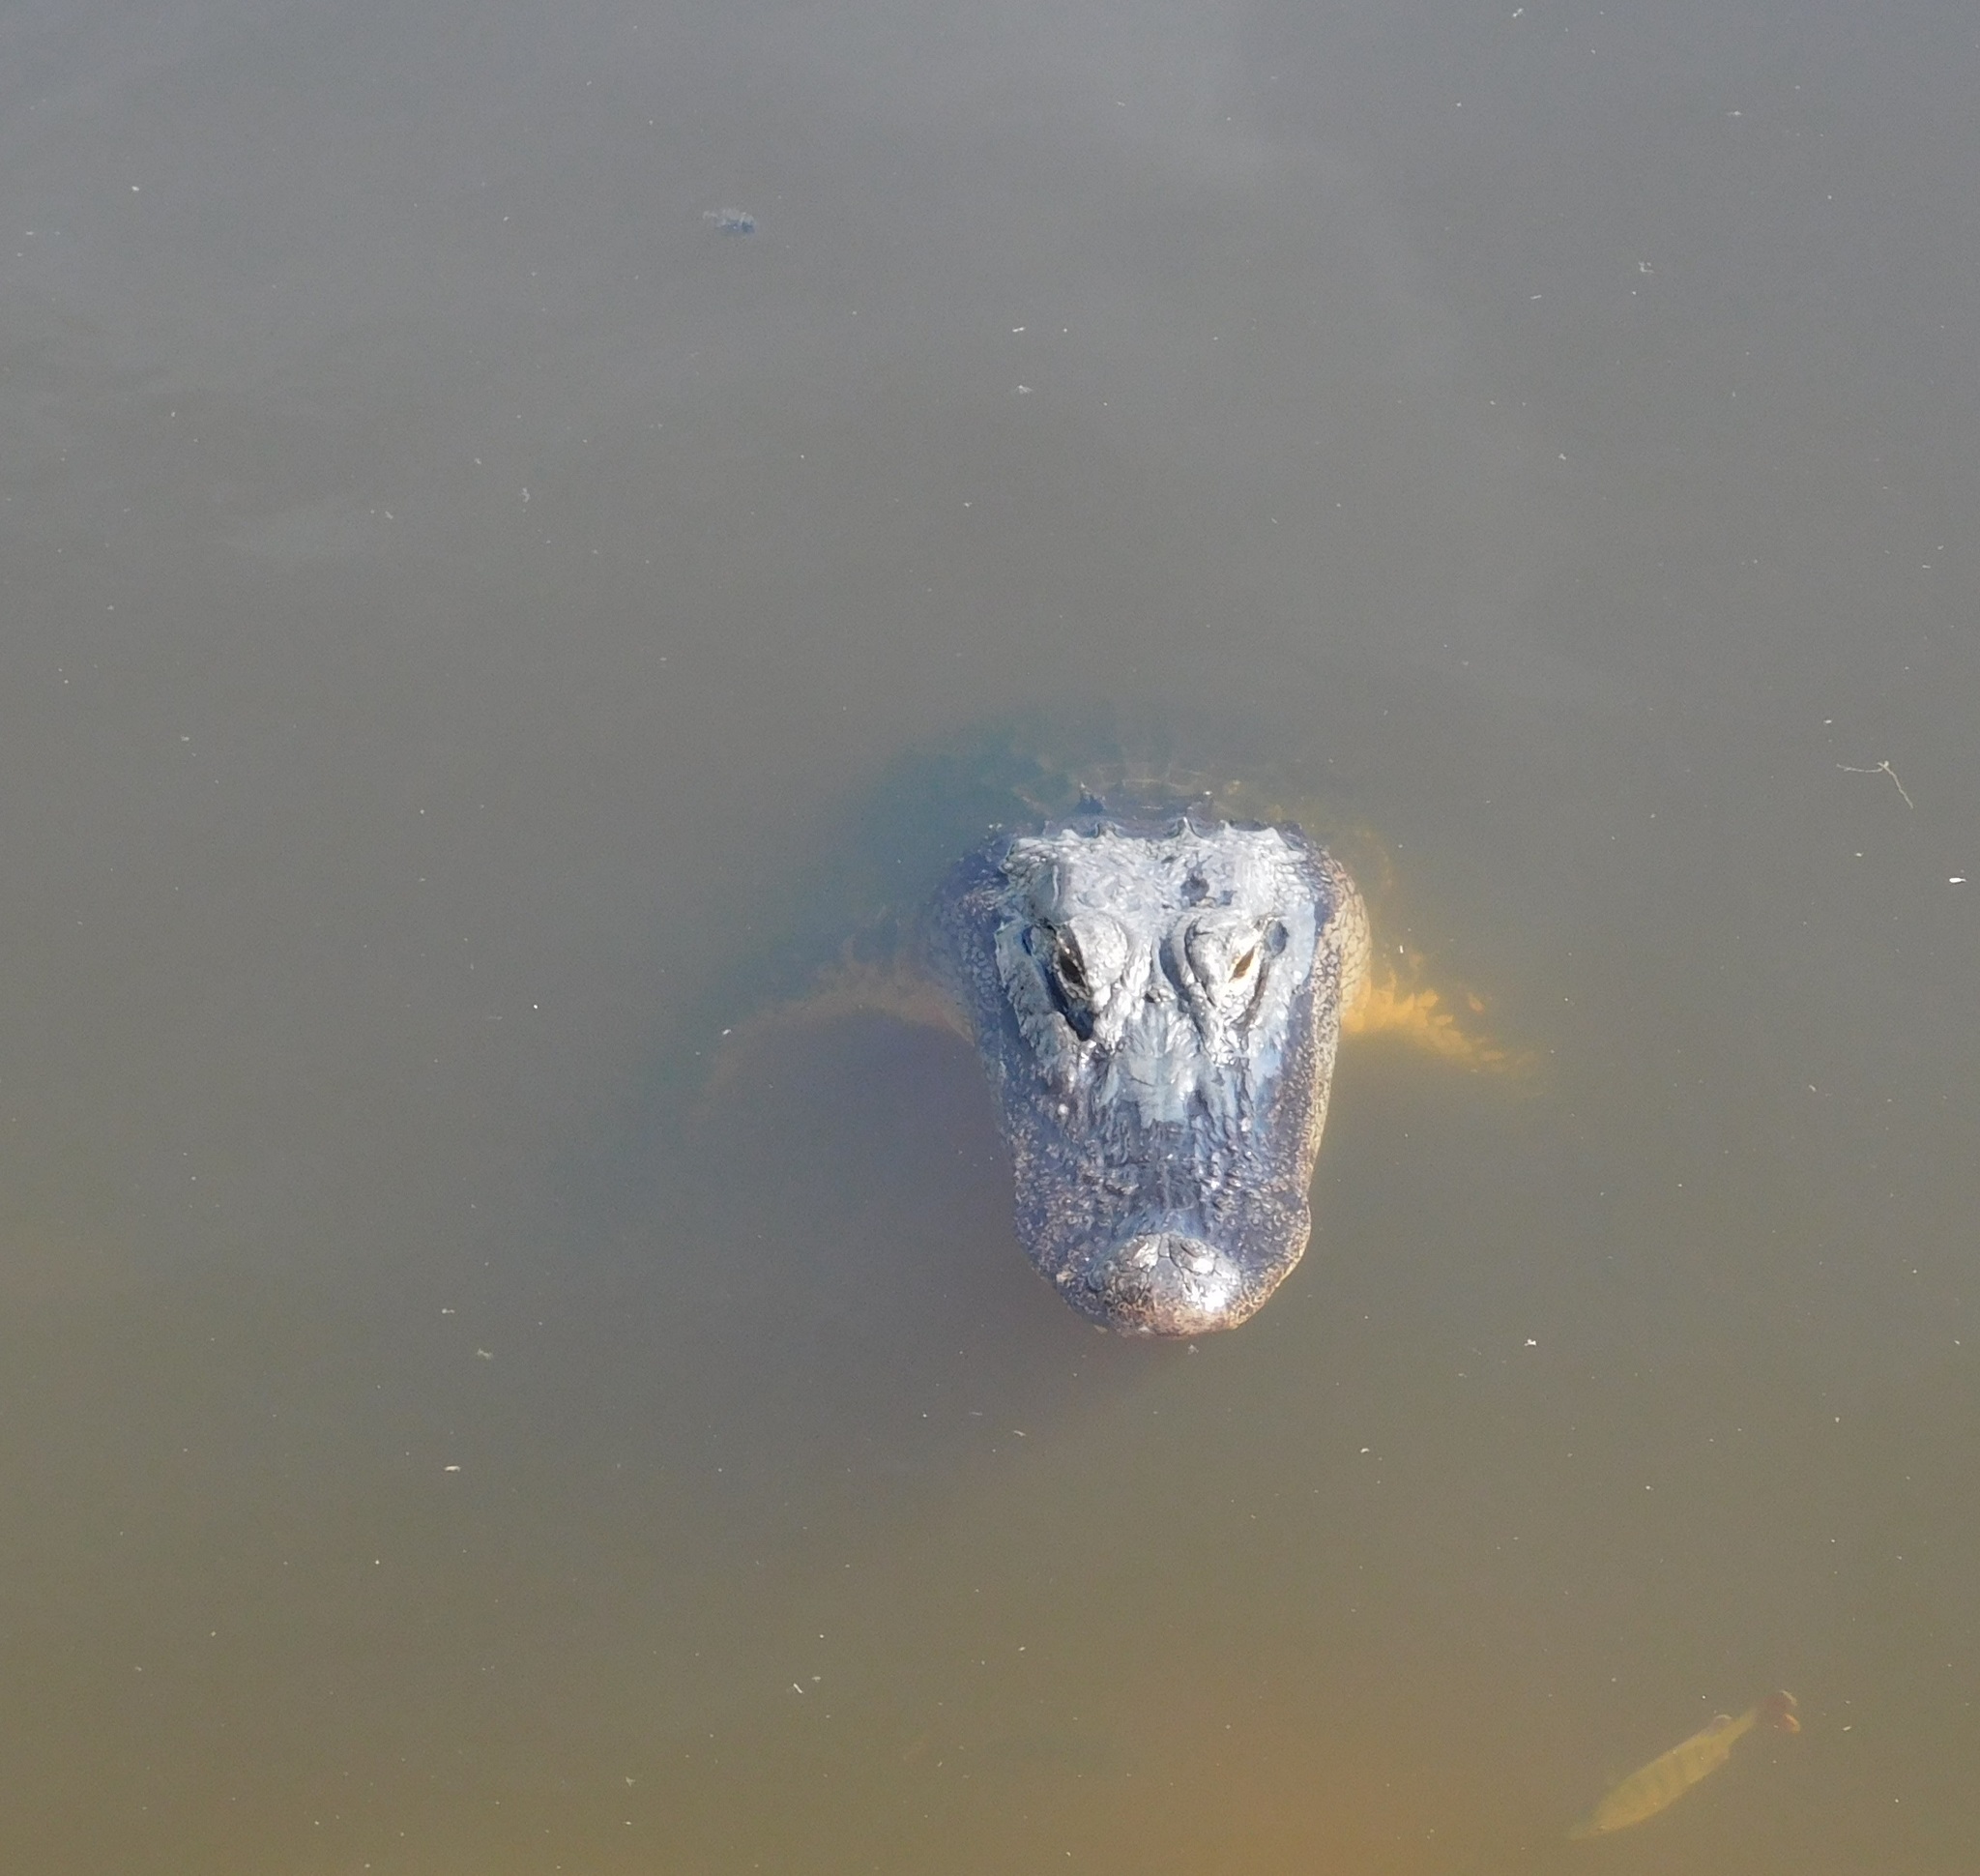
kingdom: Animalia
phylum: Chordata
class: Crocodylia
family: Alligatoridae
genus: Alligator
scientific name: Alligator mississippiensis
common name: American alligator
